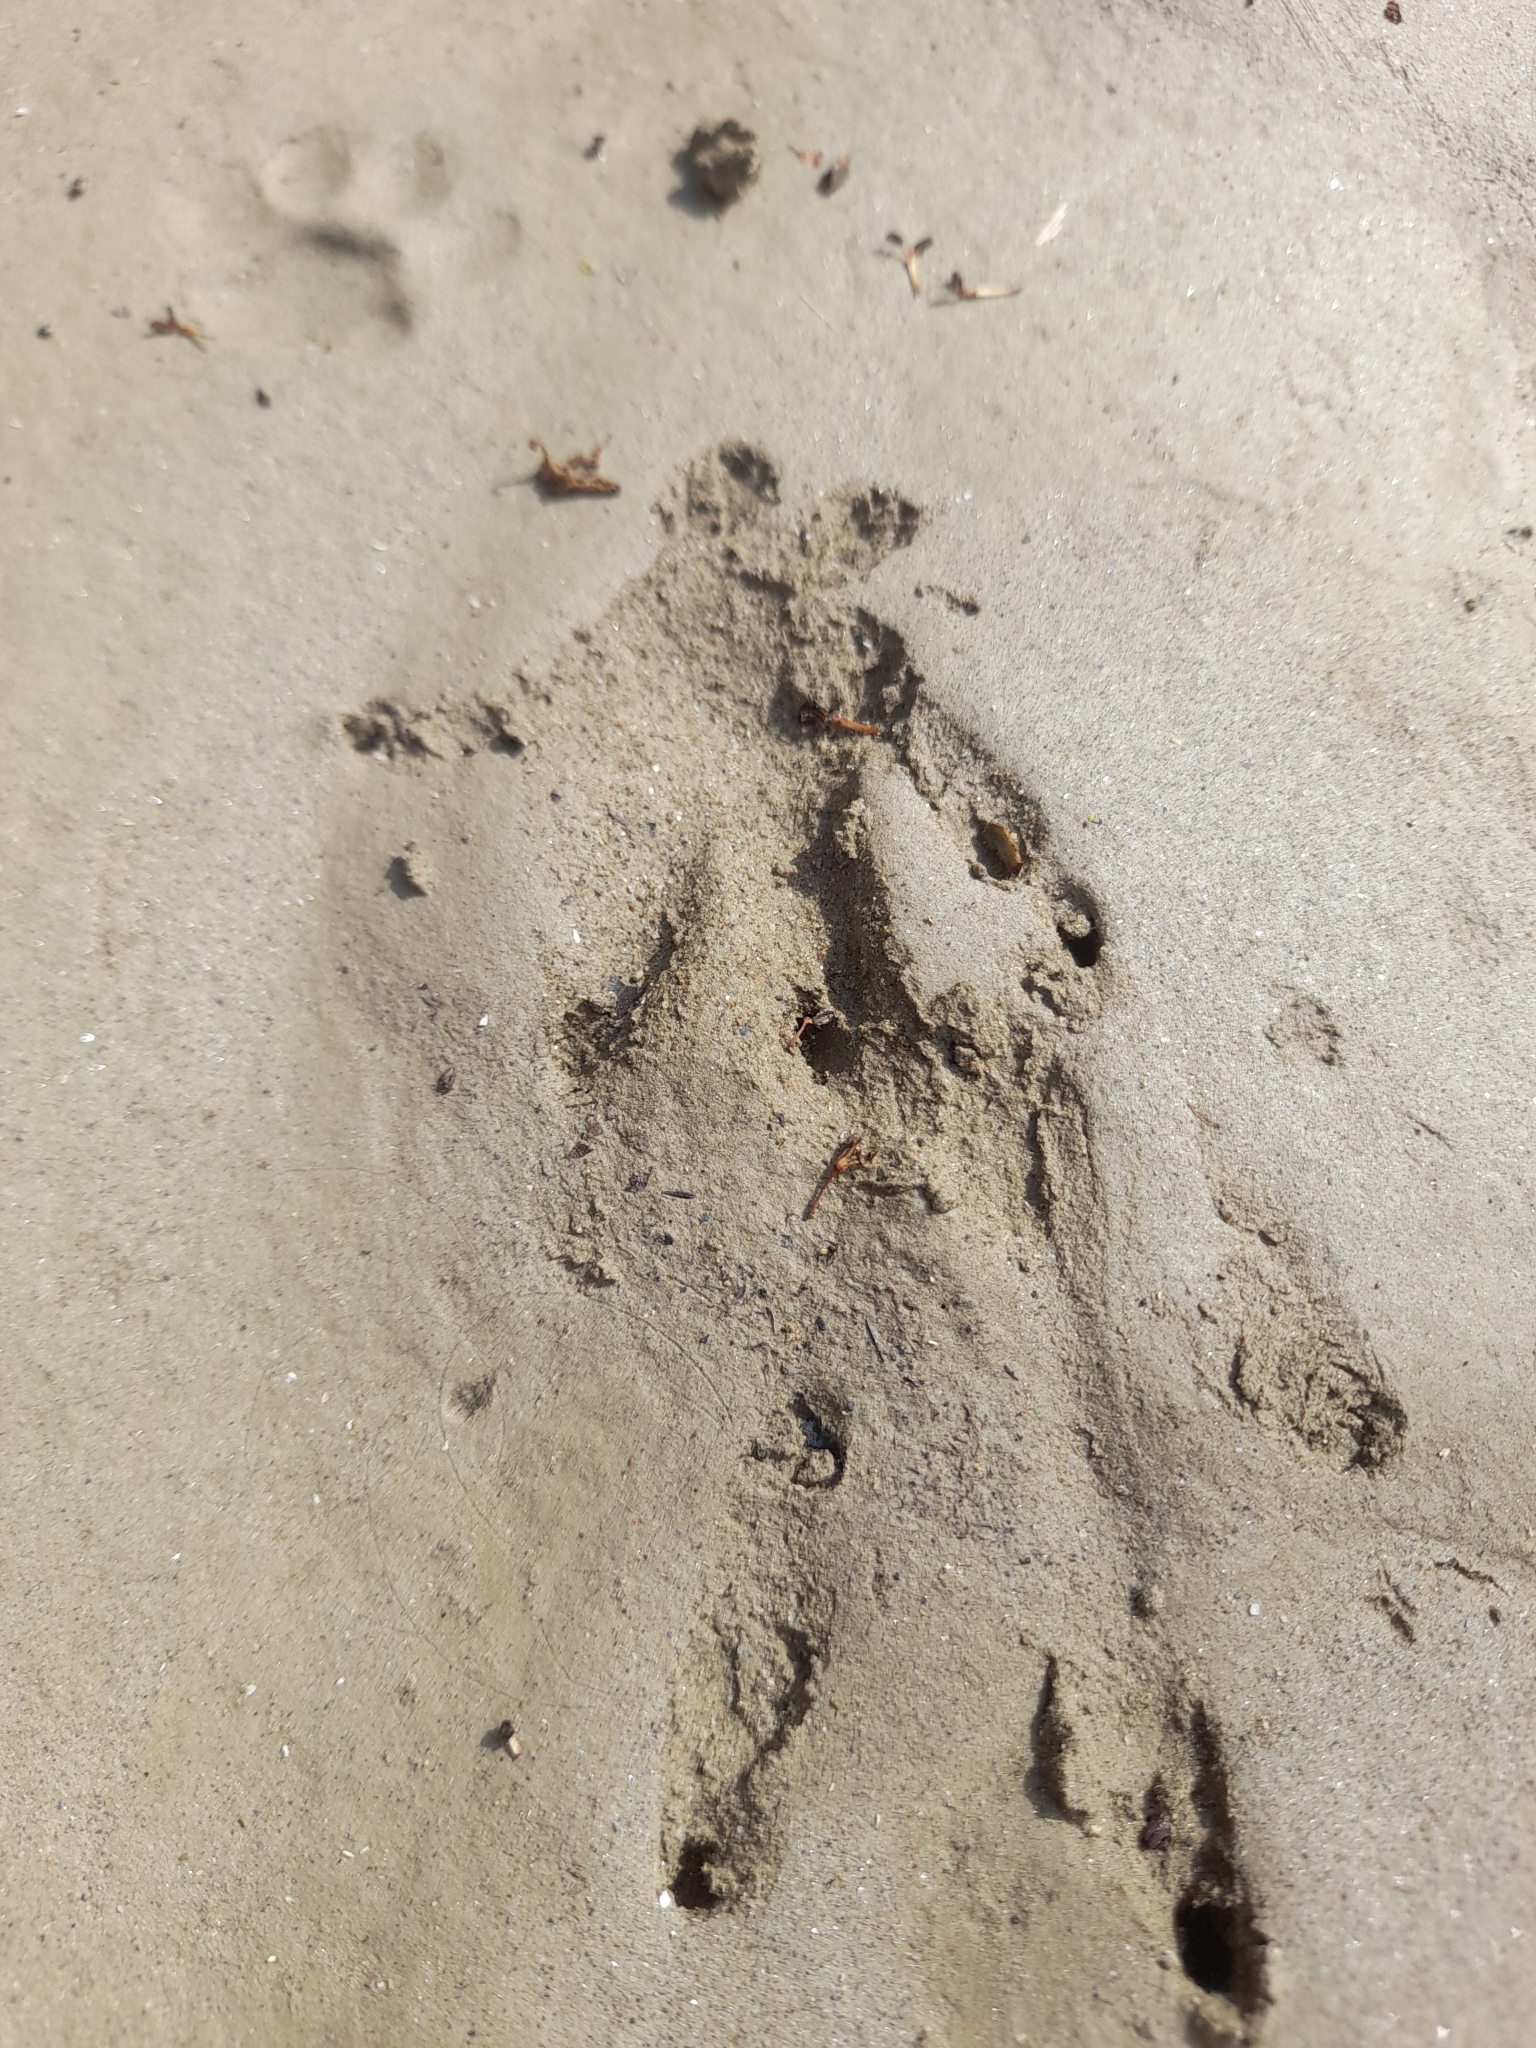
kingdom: Animalia
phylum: Chordata
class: Mammalia
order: Rodentia
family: Myocastoridae
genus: Myocastor
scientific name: Myocastor coypus
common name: Coypu
